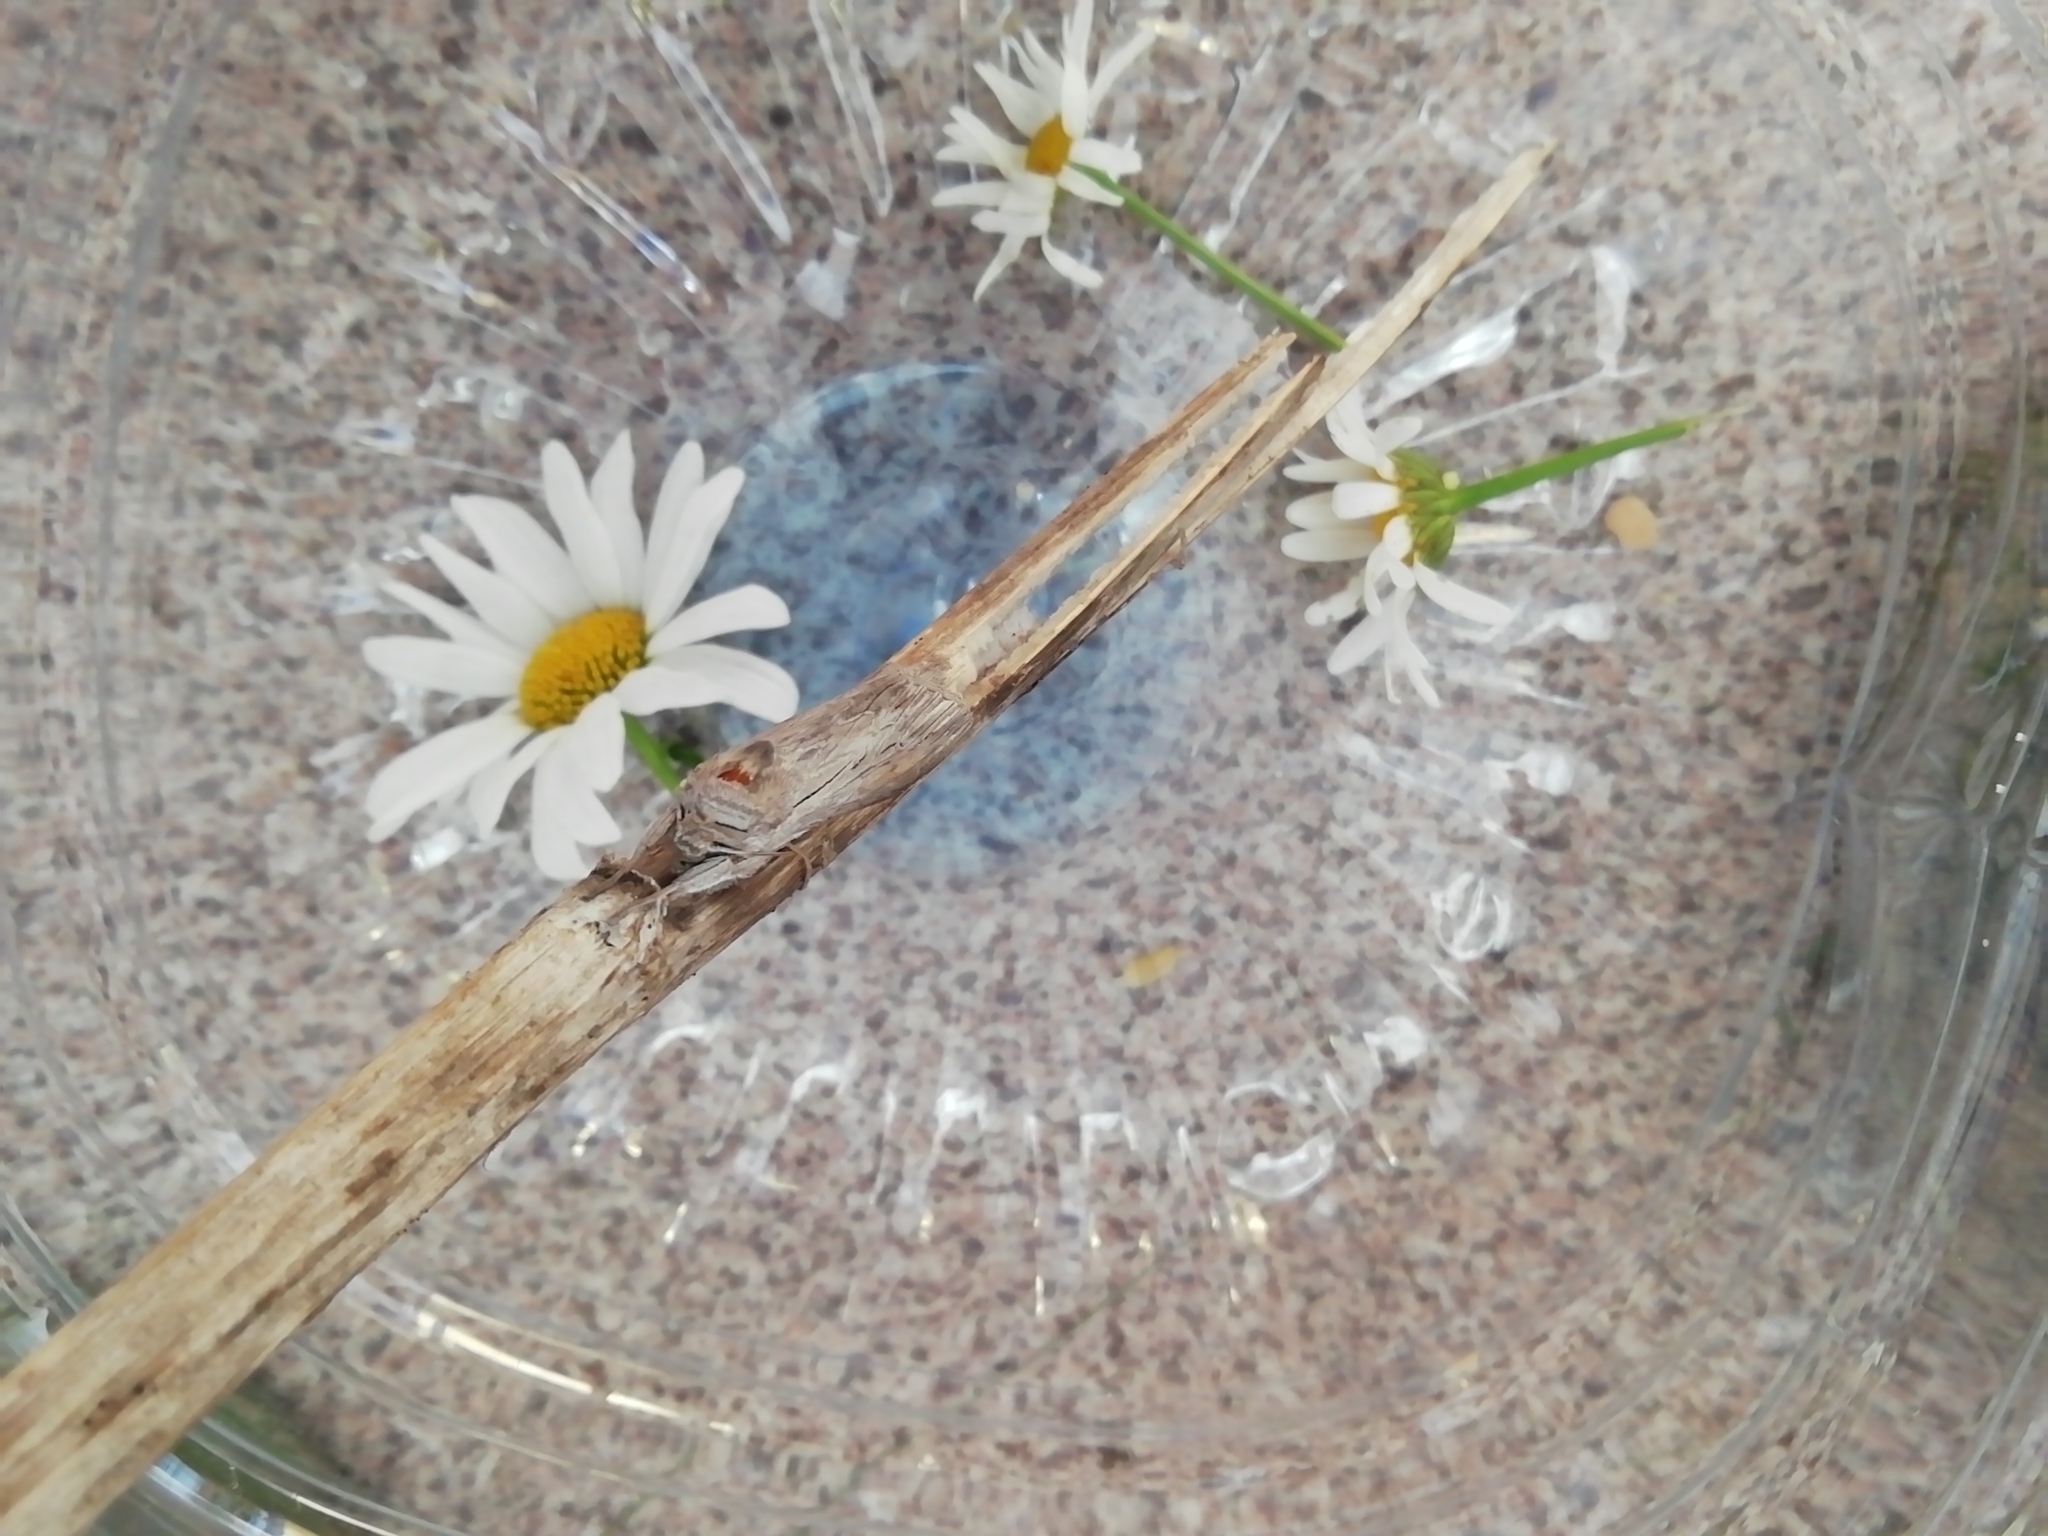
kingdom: Animalia
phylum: Arthropoda
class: Insecta
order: Lepidoptera
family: Noctuidae
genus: Cucullia
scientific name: Cucullia umbratica
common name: Shark
